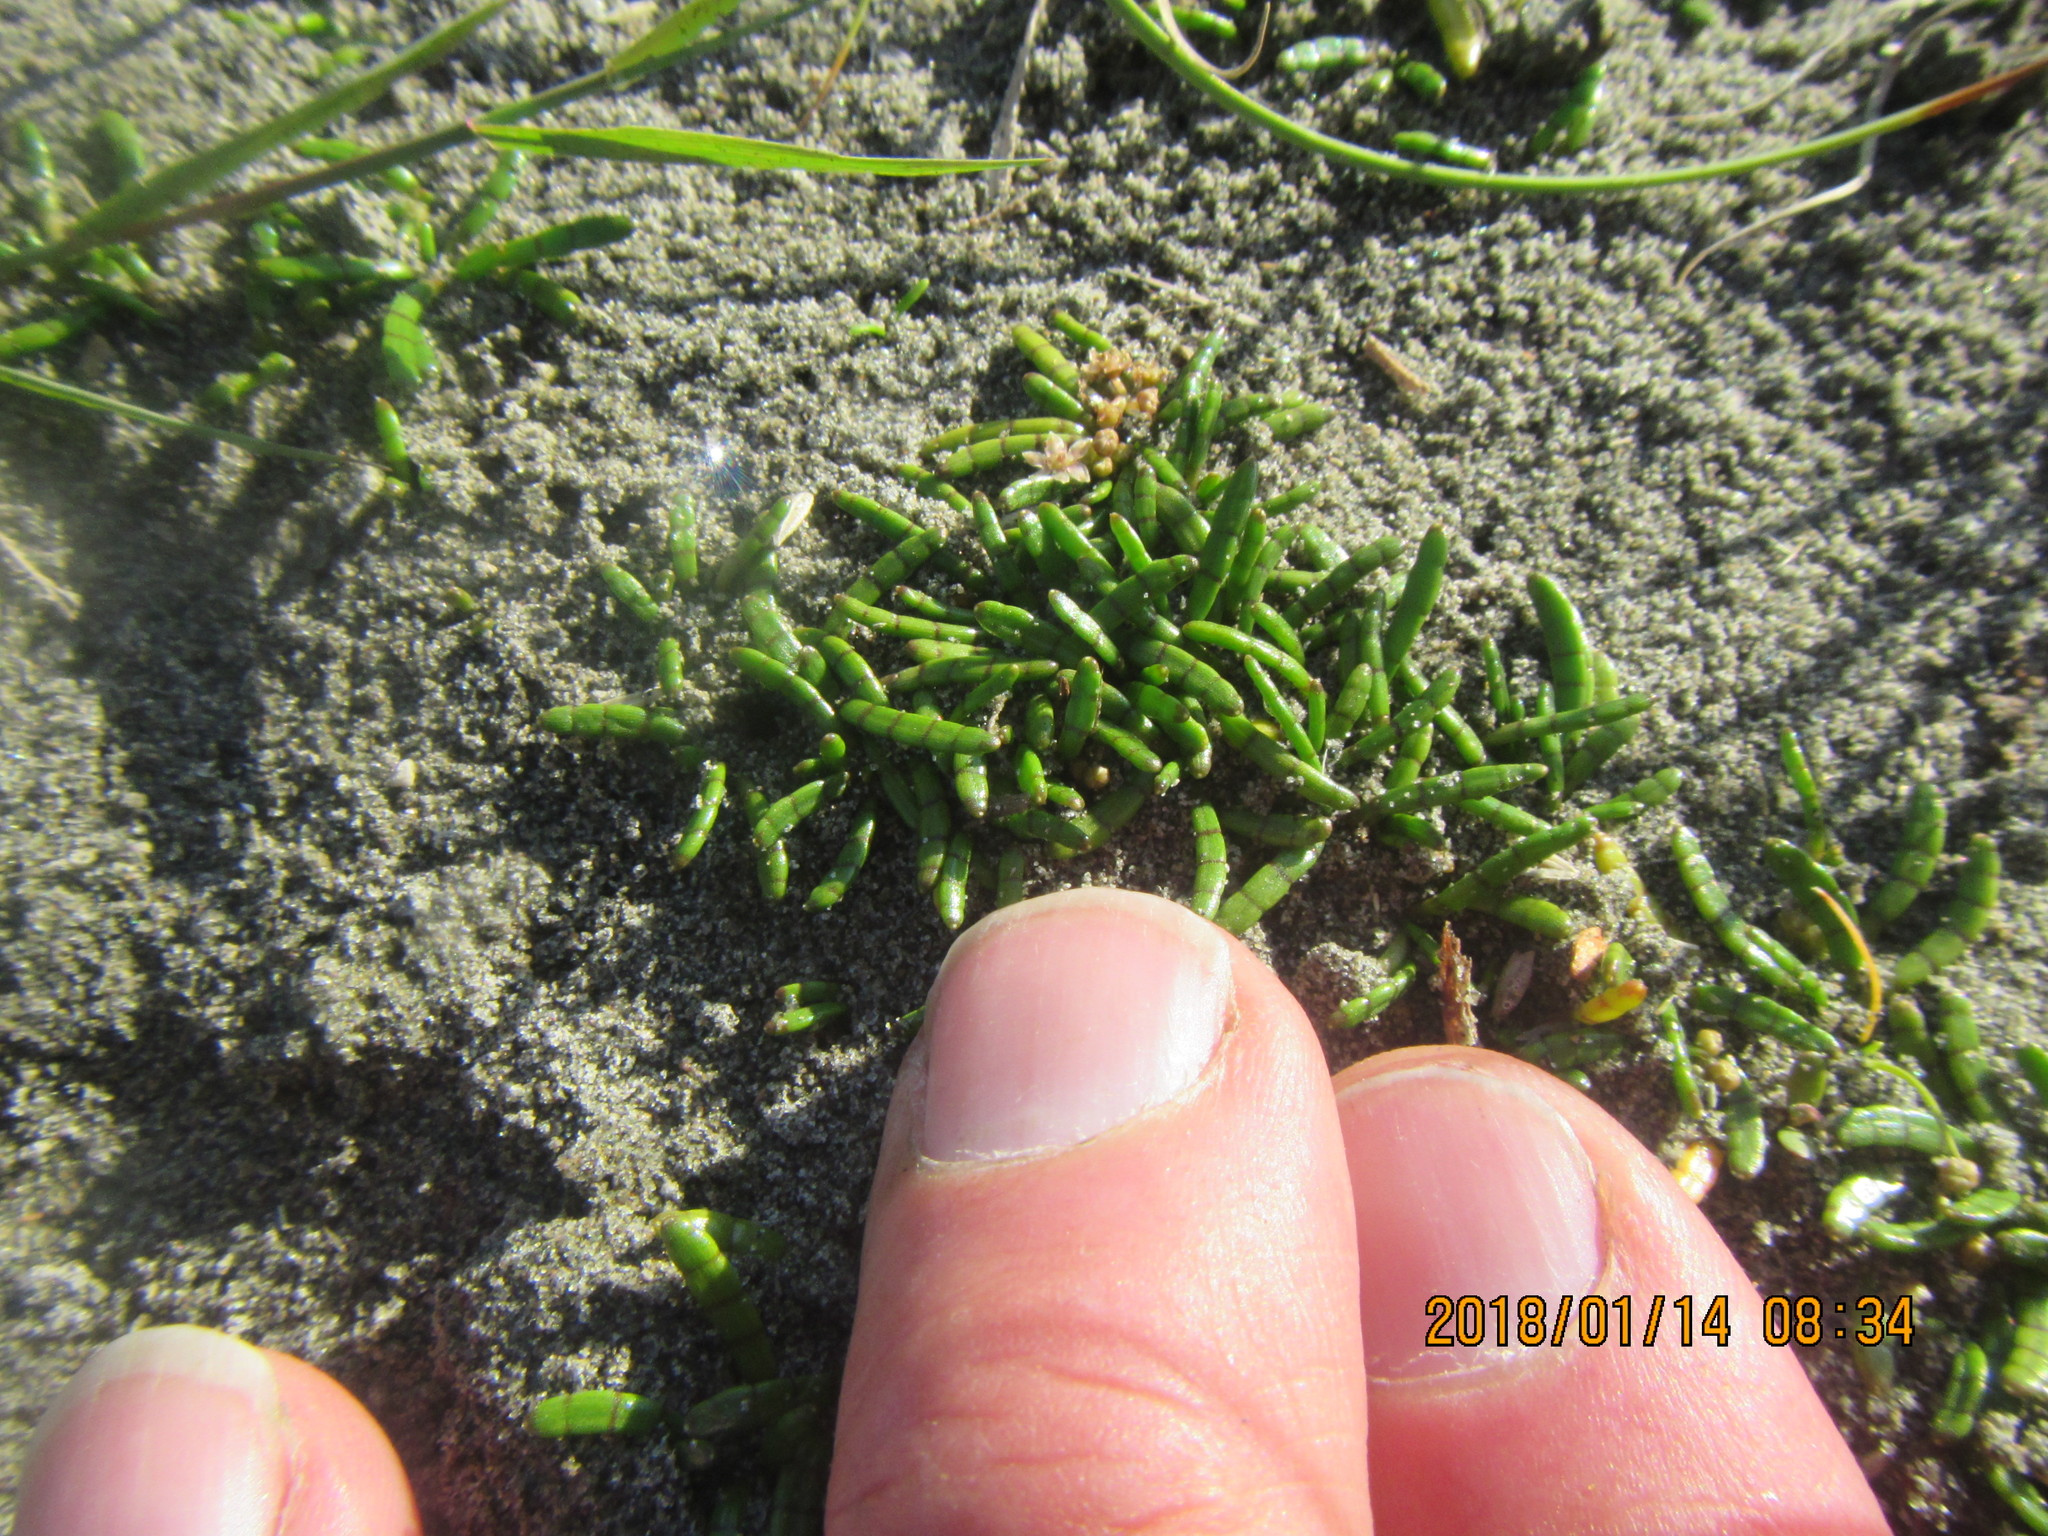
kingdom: Plantae
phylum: Tracheophyta
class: Magnoliopsida
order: Apiales
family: Apiaceae
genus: Lilaeopsis
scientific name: Lilaeopsis novae-zelandiae
